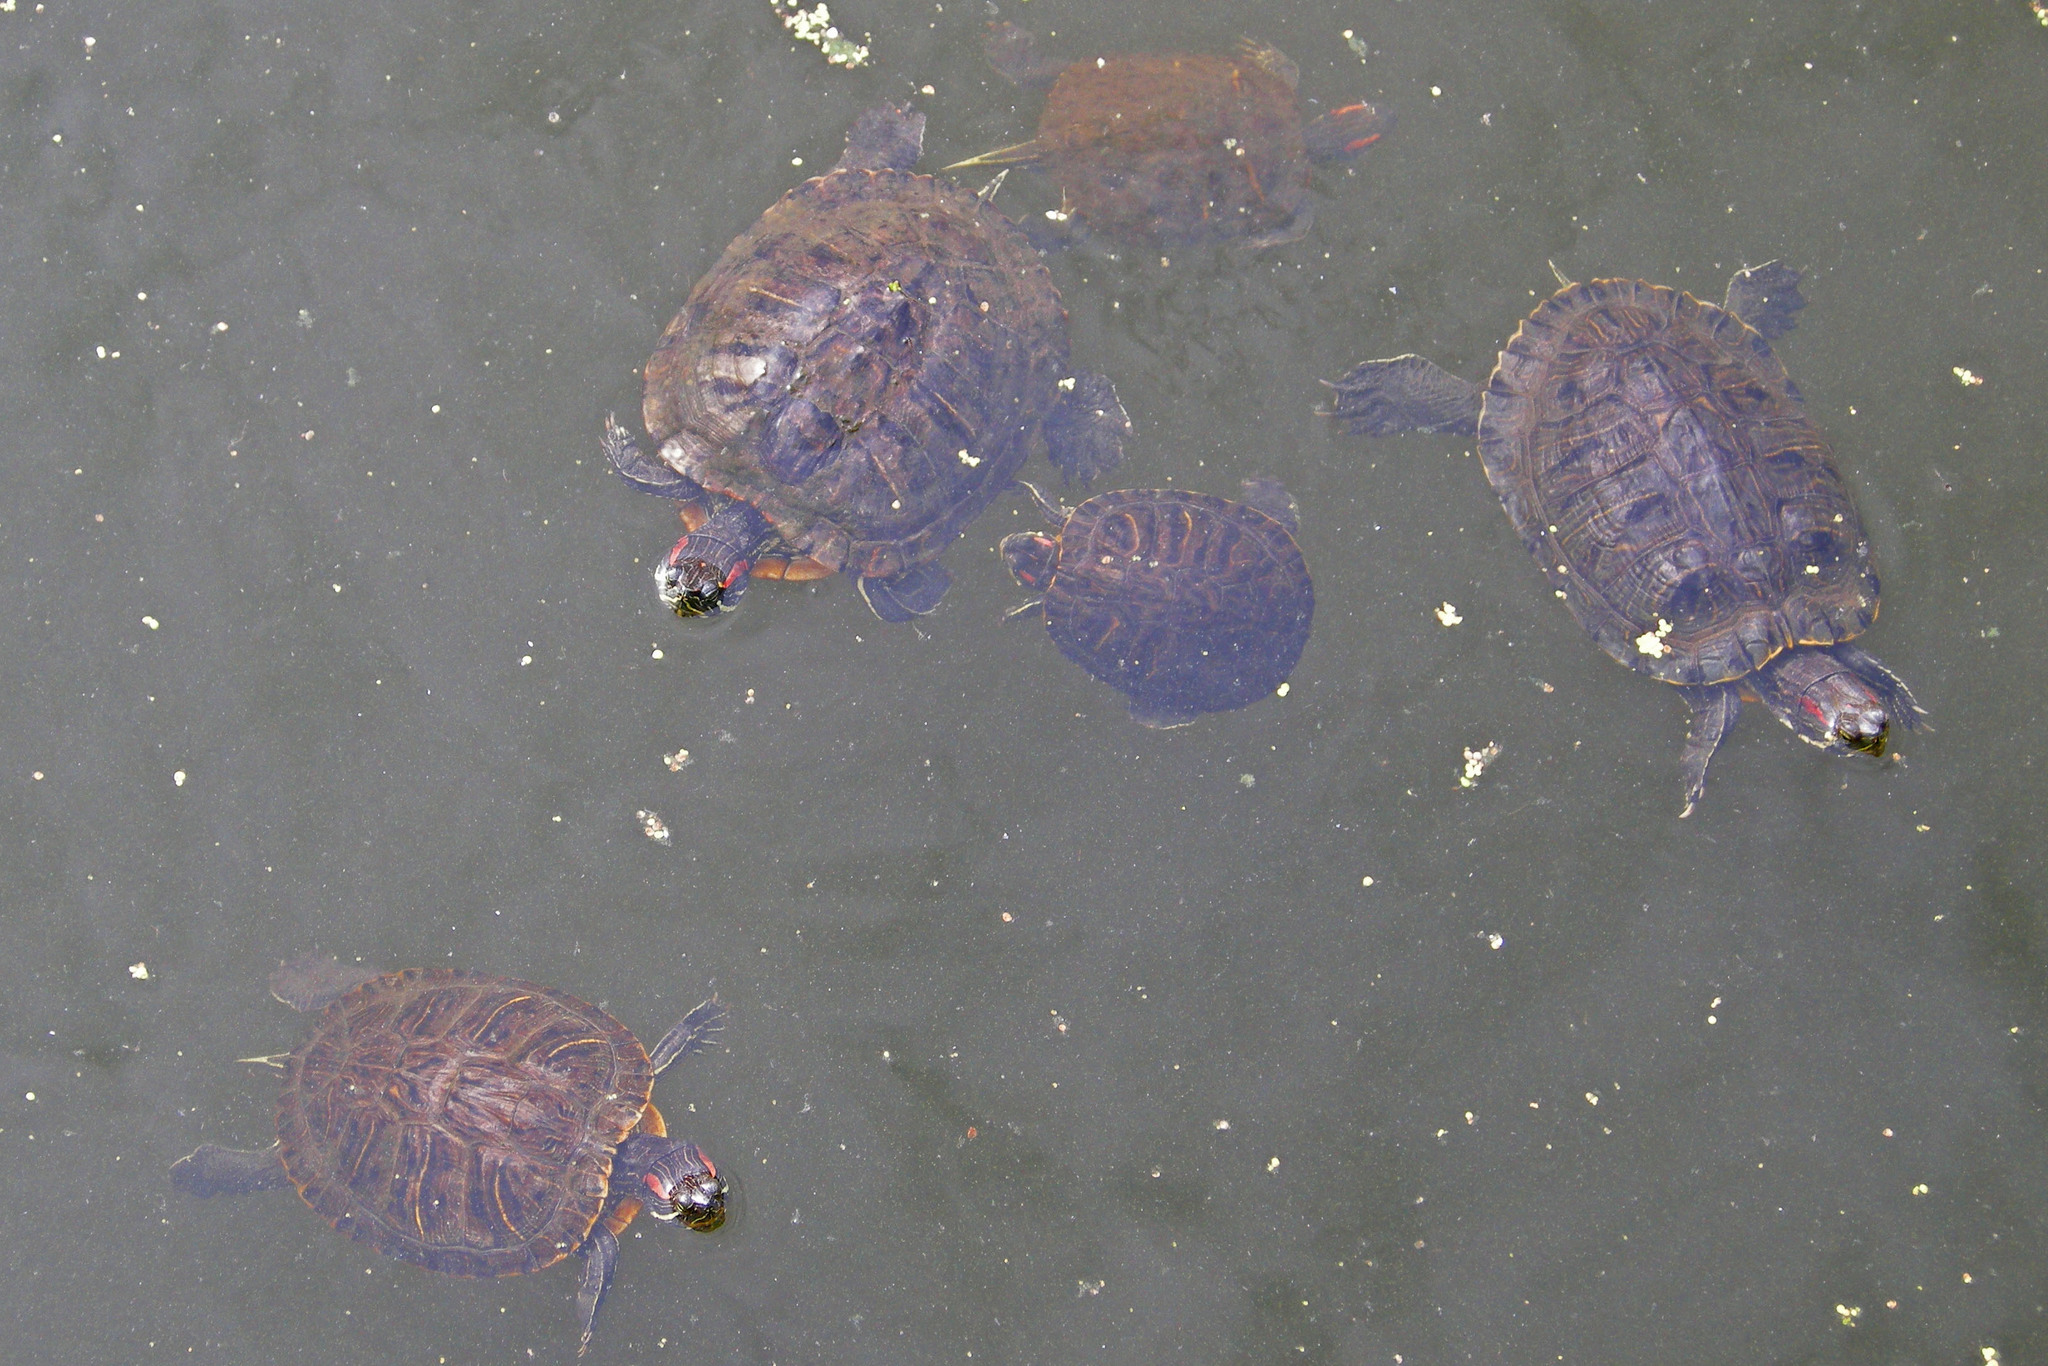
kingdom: Animalia
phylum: Chordata
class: Testudines
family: Emydidae
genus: Trachemys
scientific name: Trachemys scripta
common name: Slider
